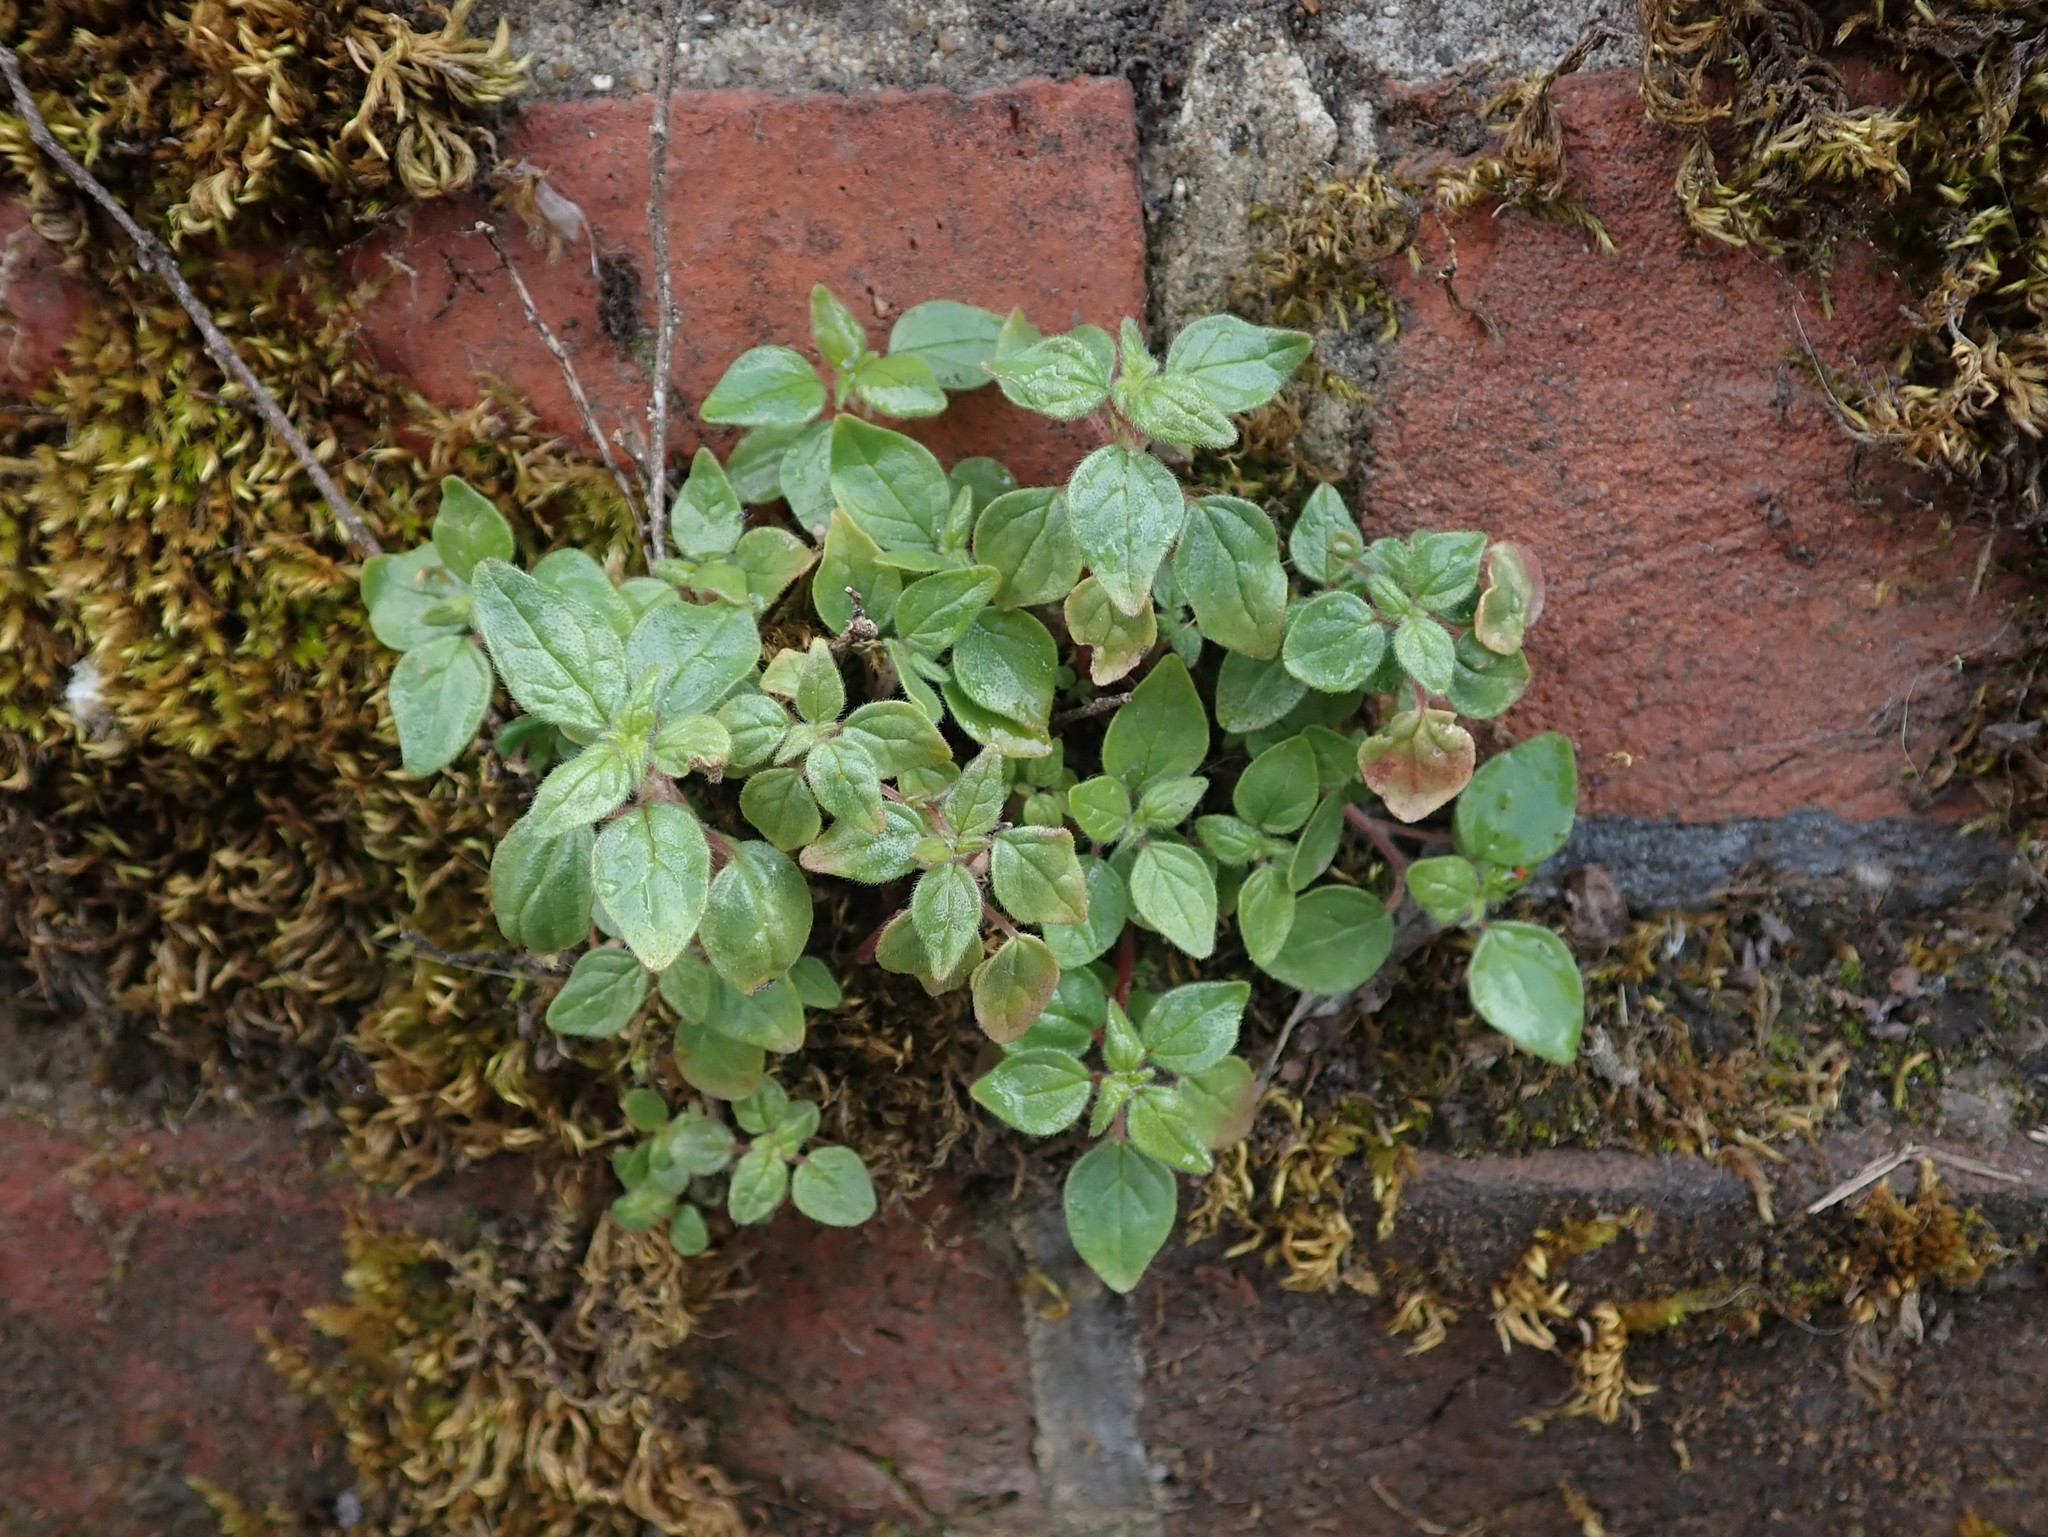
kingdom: Plantae
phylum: Tracheophyta
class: Magnoliopsida
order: Rosales
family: Urticaceae
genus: Parietaria
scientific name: Parietaria judaica
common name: Pellitory-of-the-wall
